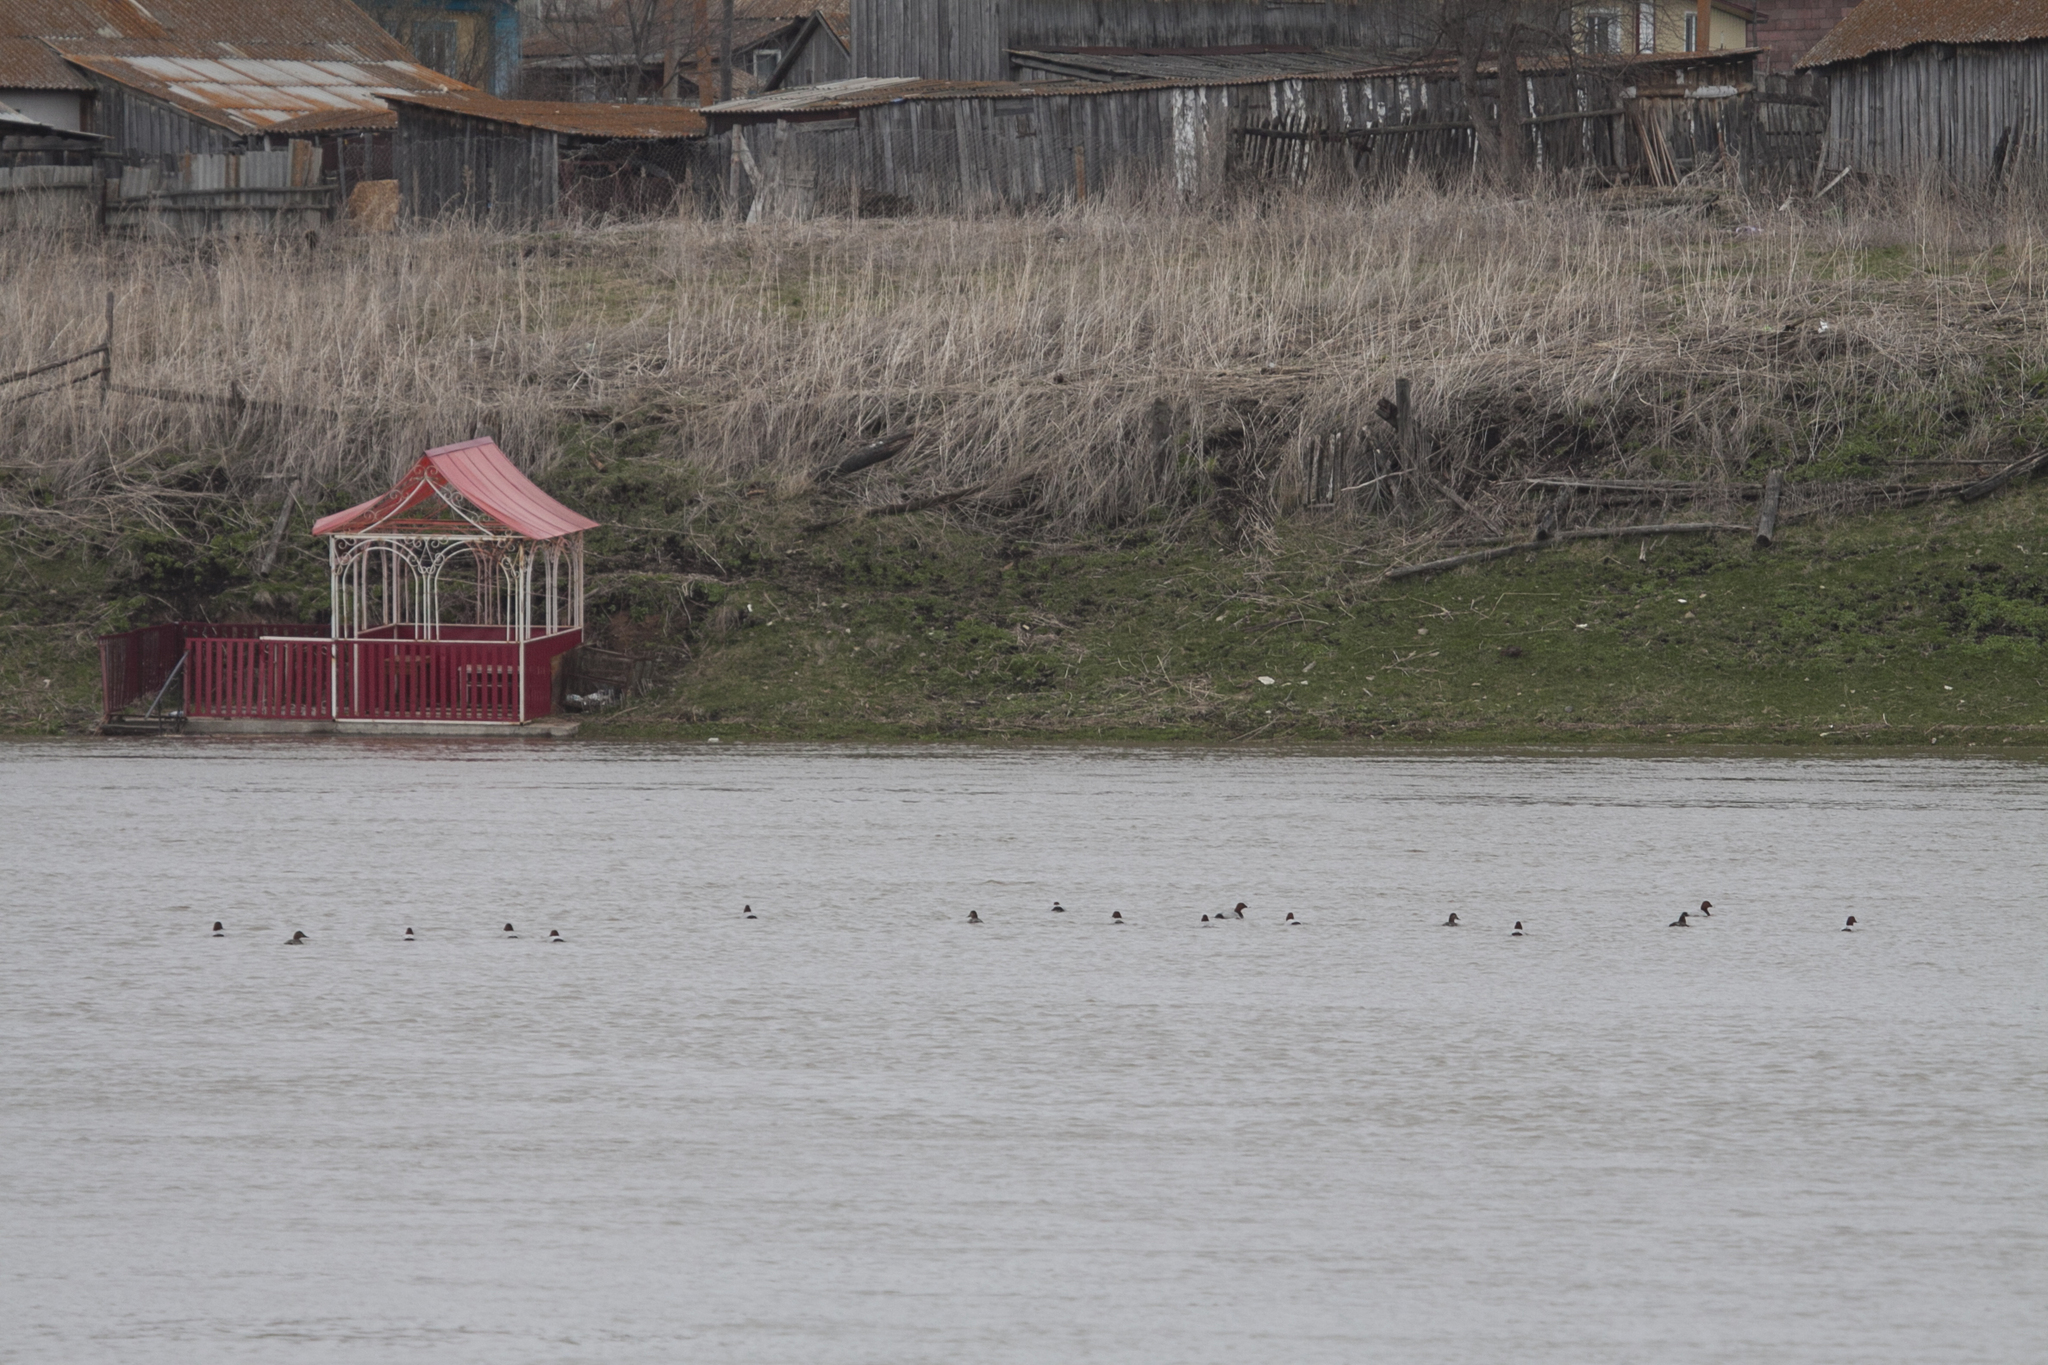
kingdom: Animalia
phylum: Chordata
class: Aves
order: Anseriformes
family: Anatidae
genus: Aythya
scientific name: Aythya ferina
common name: Common pochard
